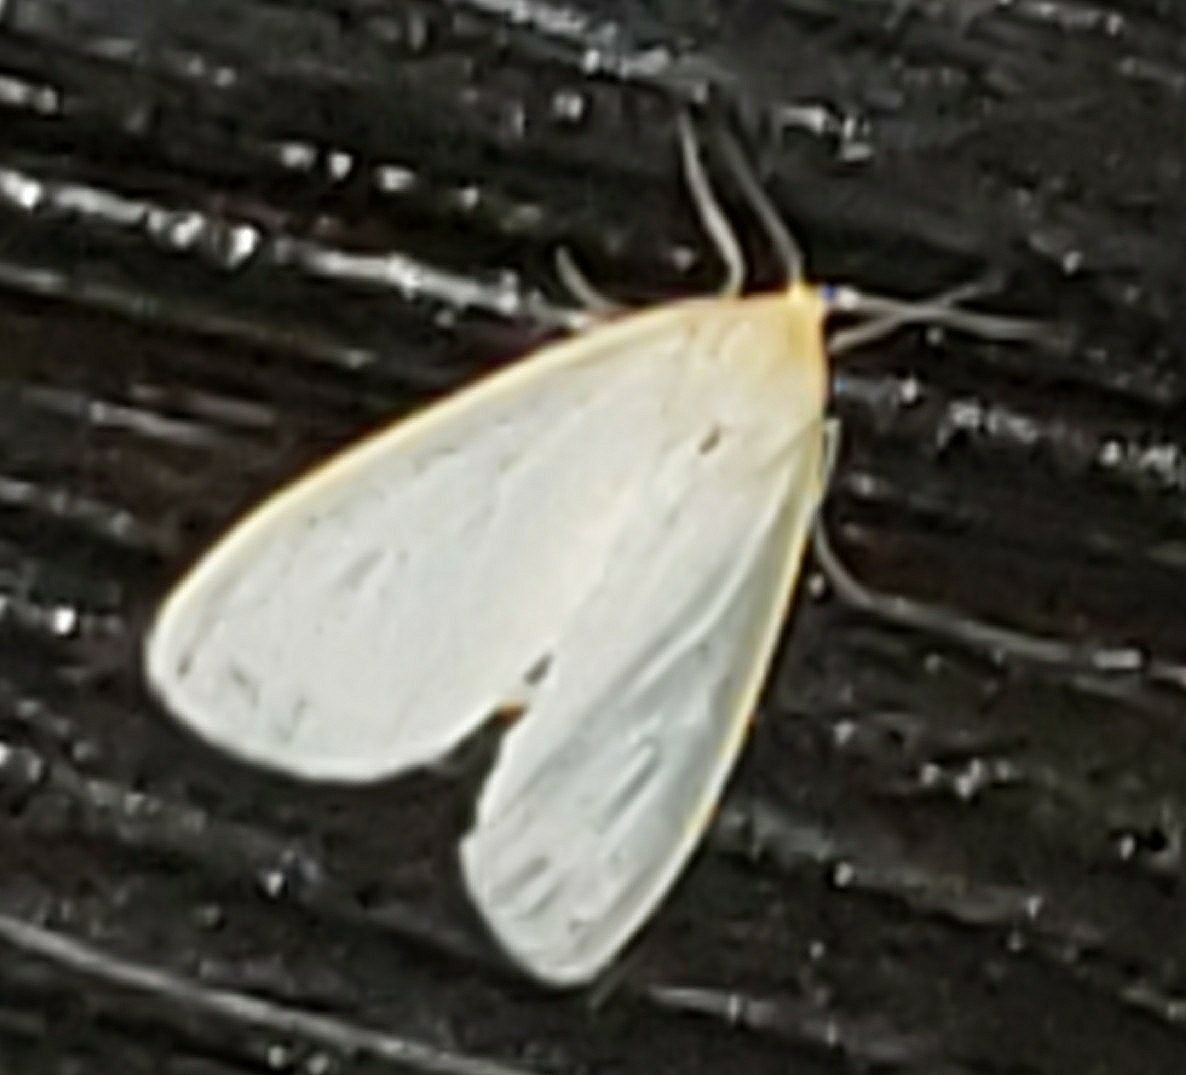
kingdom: Animalia
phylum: Arthropoda
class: Insecta
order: Lepidoptera
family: Erebidae
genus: Cycnia
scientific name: Cycnia tenera
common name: Delicate cycnia moth
